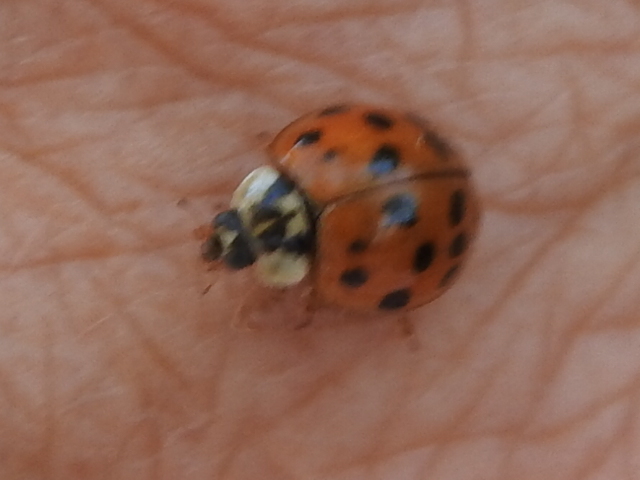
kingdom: Animalia
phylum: Arthropoda
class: Insecta
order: Coleoptera
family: Coccinellidae
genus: Harmonia
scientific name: Harmonia axyridis
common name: Harlequin ladybird
